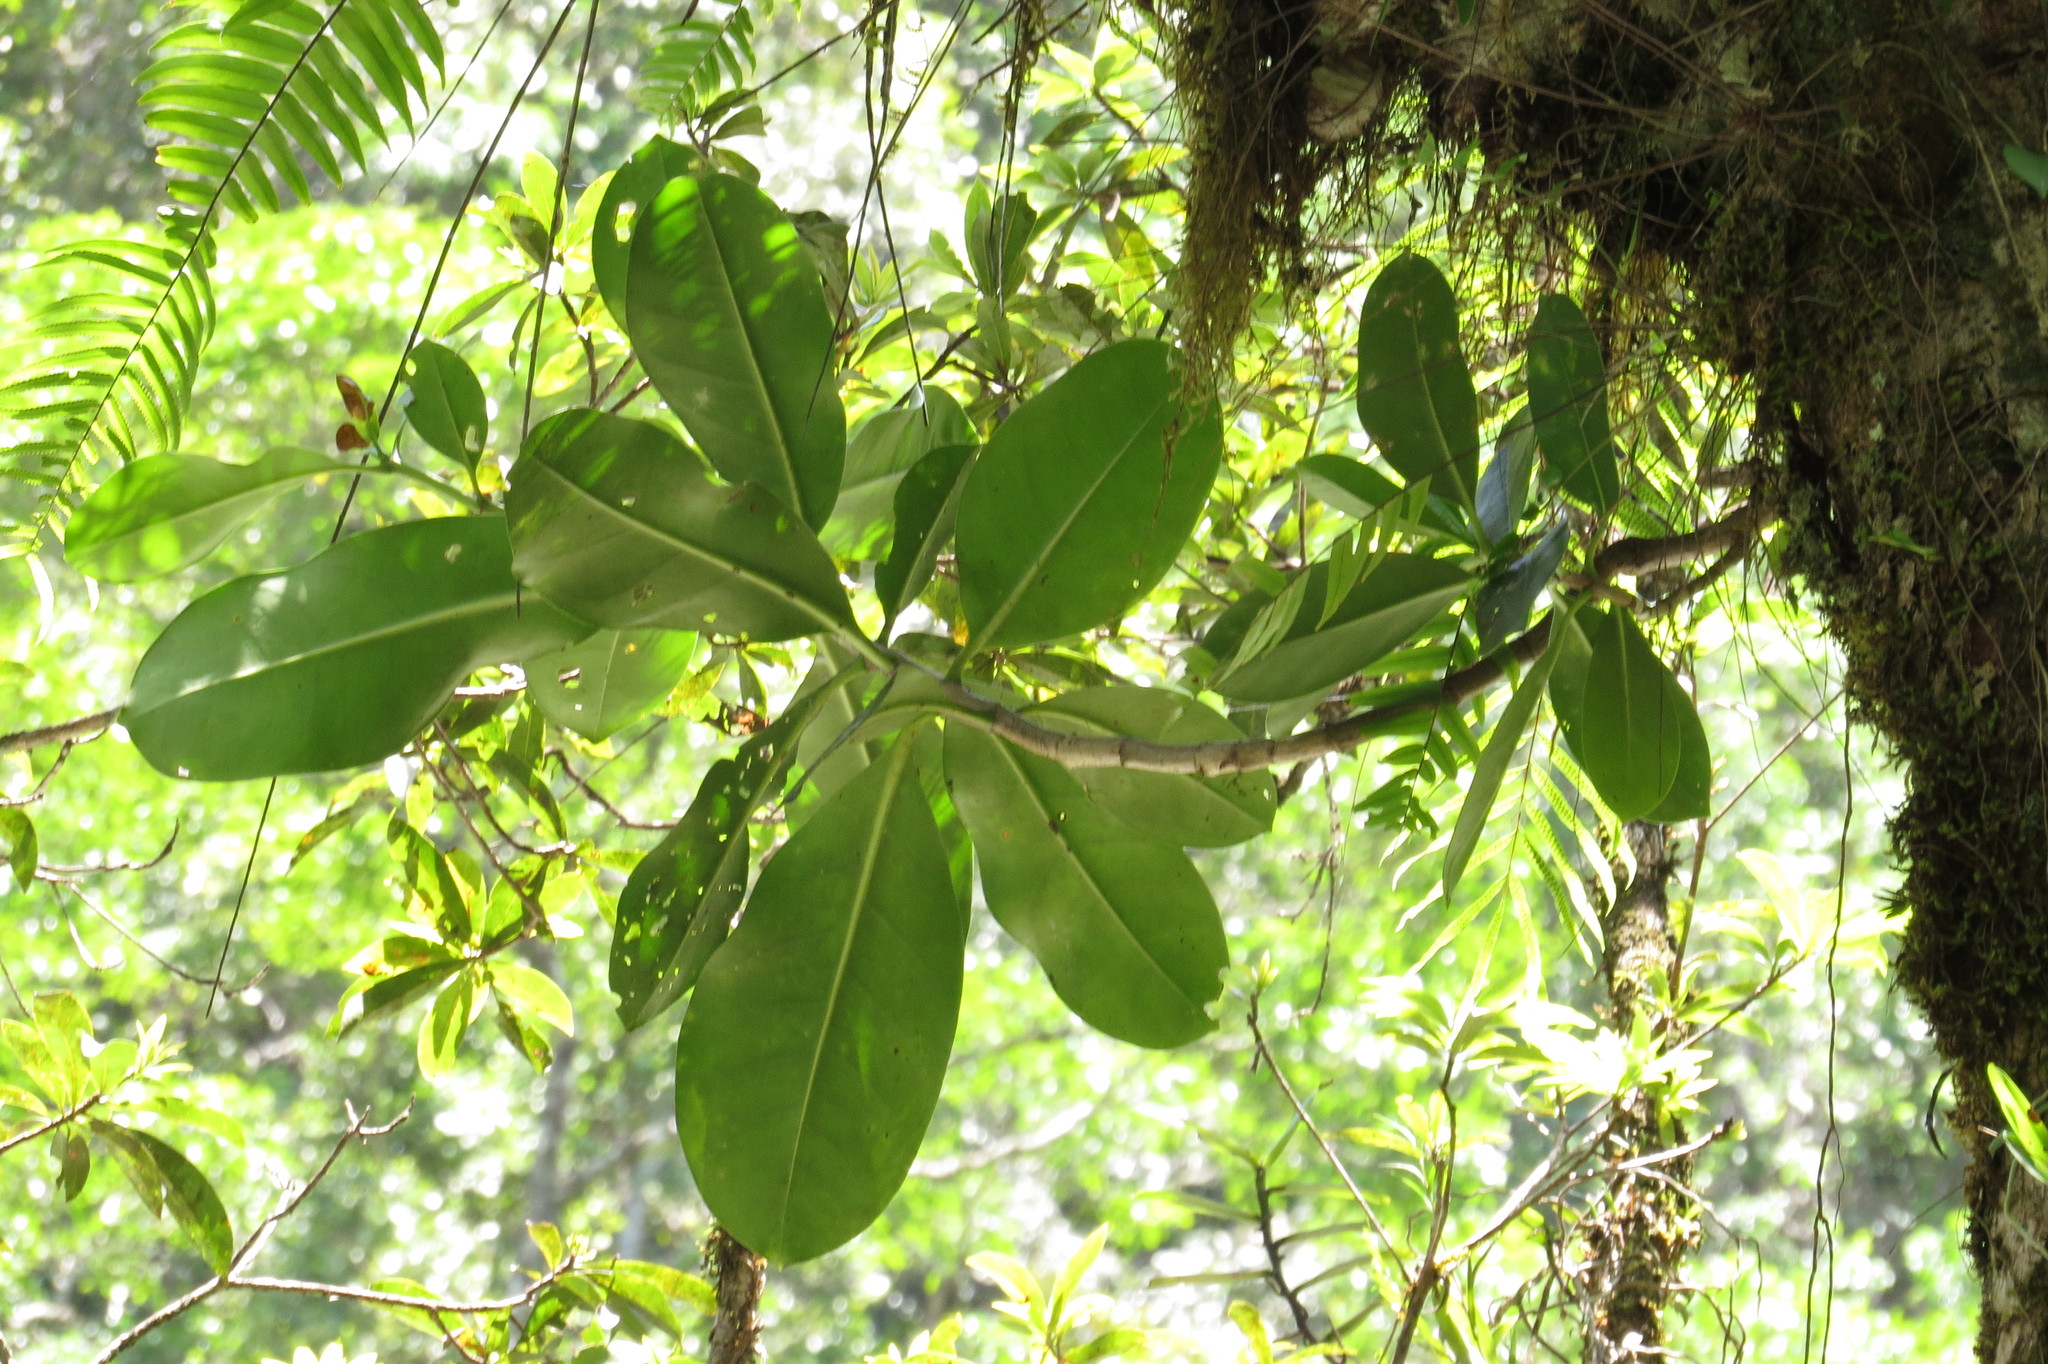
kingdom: Plantae
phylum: Tracheophyta
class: Magnoliopsida
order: Gentianales
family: Gentianaceae
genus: Fagraea
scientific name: Fagraea berteroana
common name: Cape jitta
